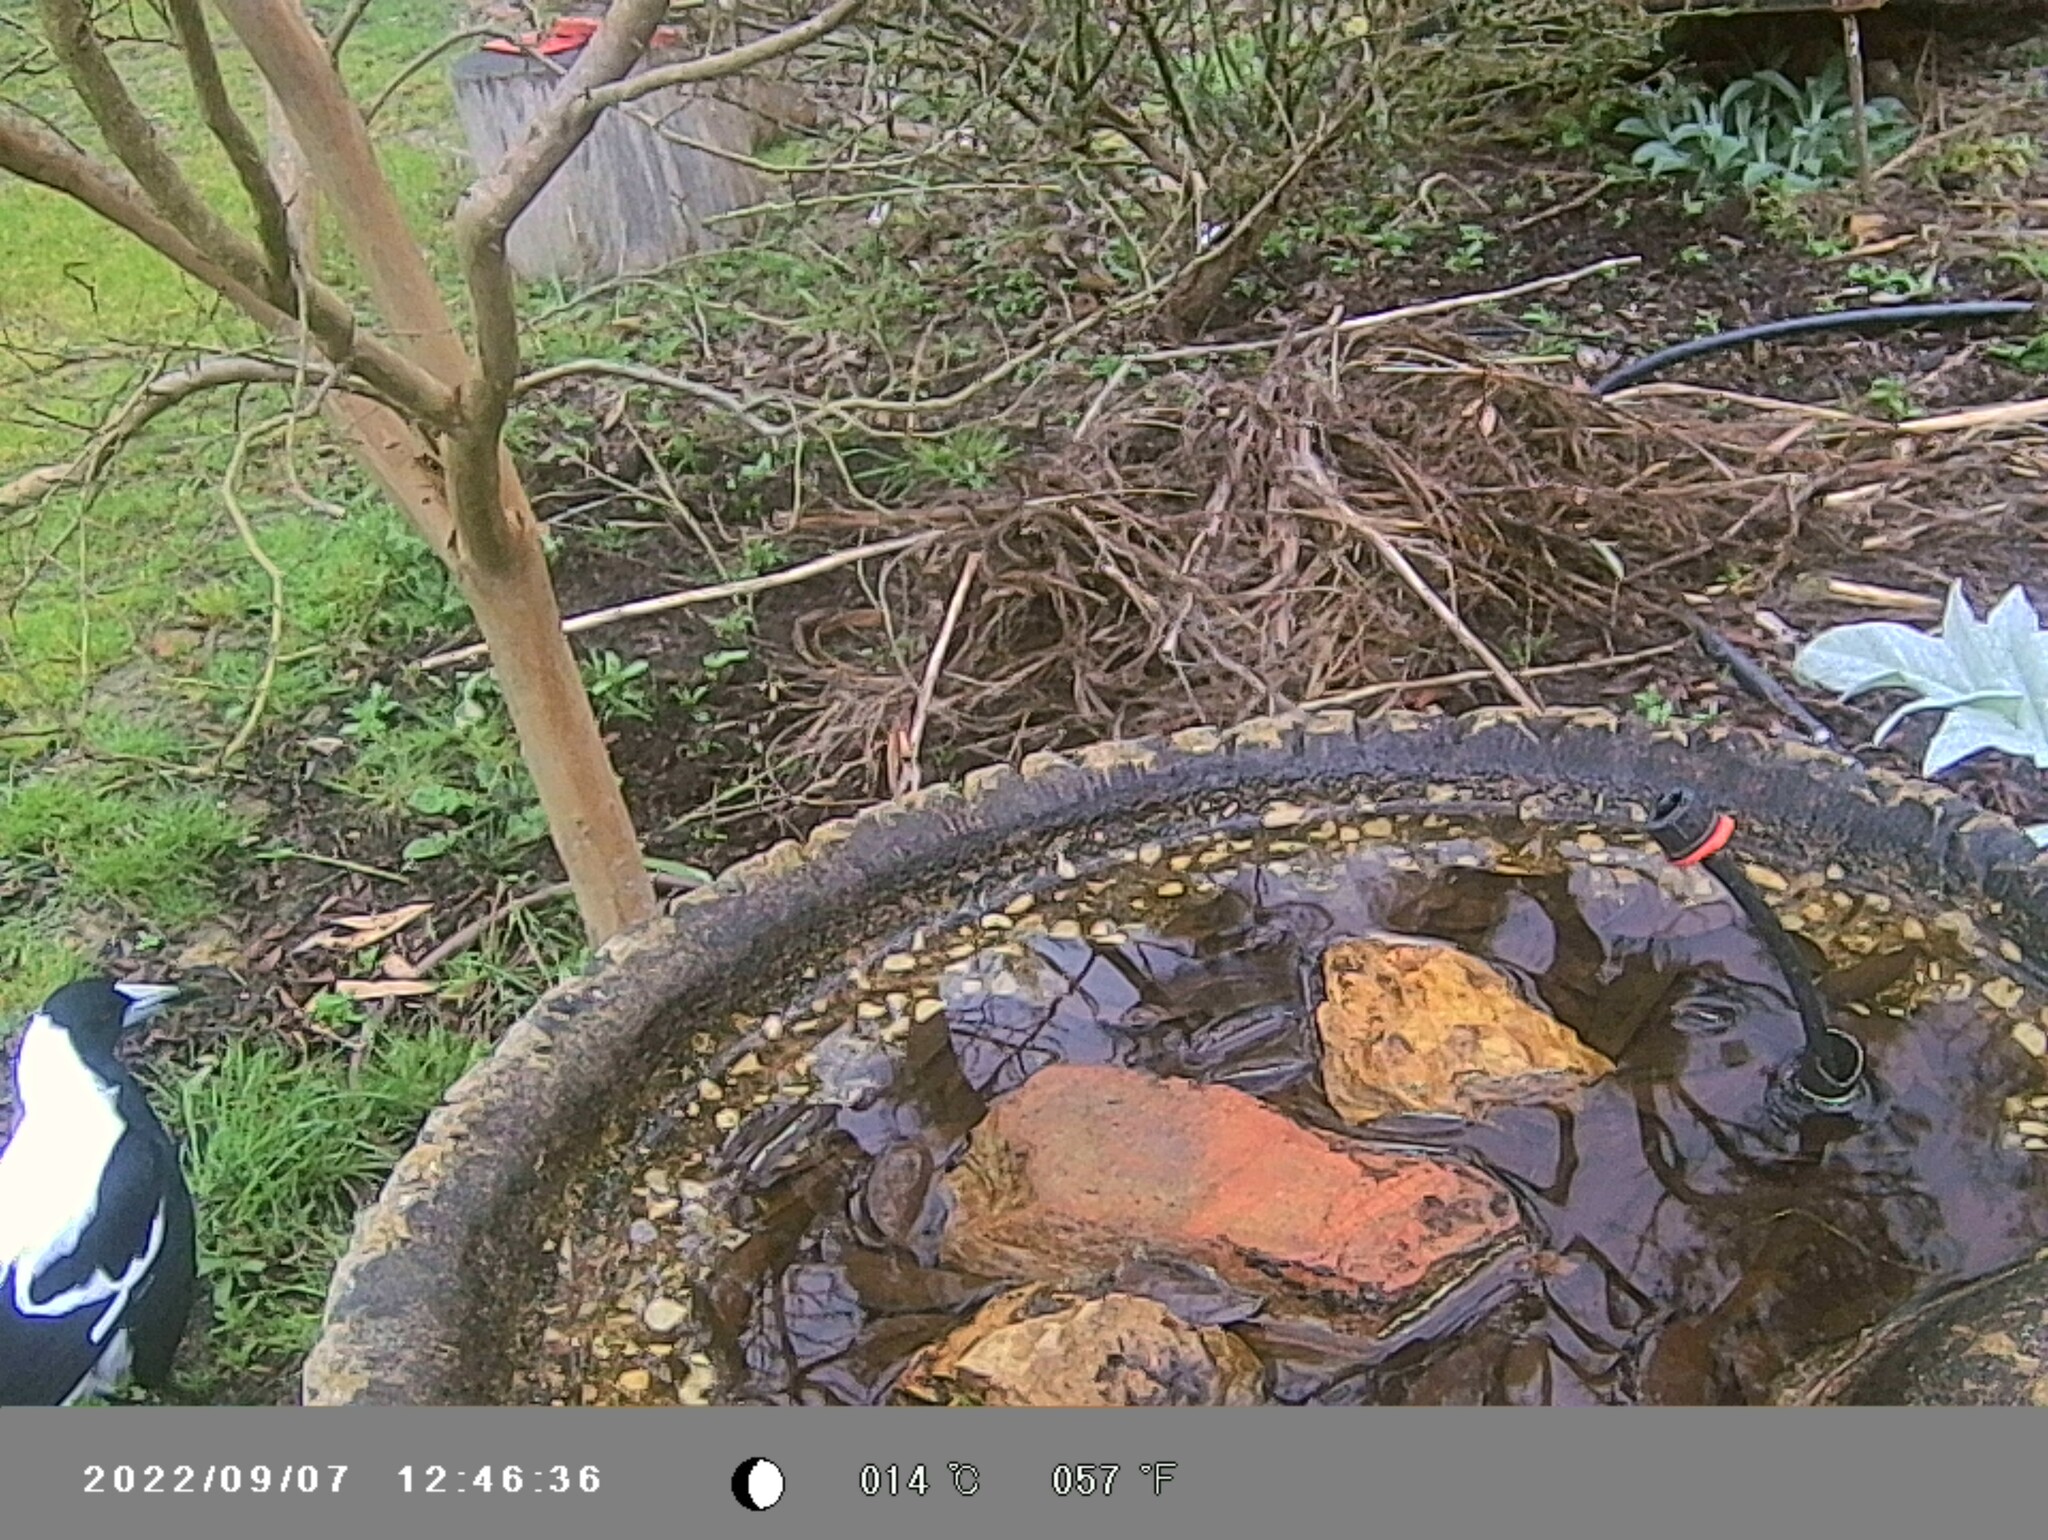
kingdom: Animalia
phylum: Chordata
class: Aves
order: Passeriformes
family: Cracticidae
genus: Gymnorhina
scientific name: Gymnorhina tibicen
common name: Australian magpie
